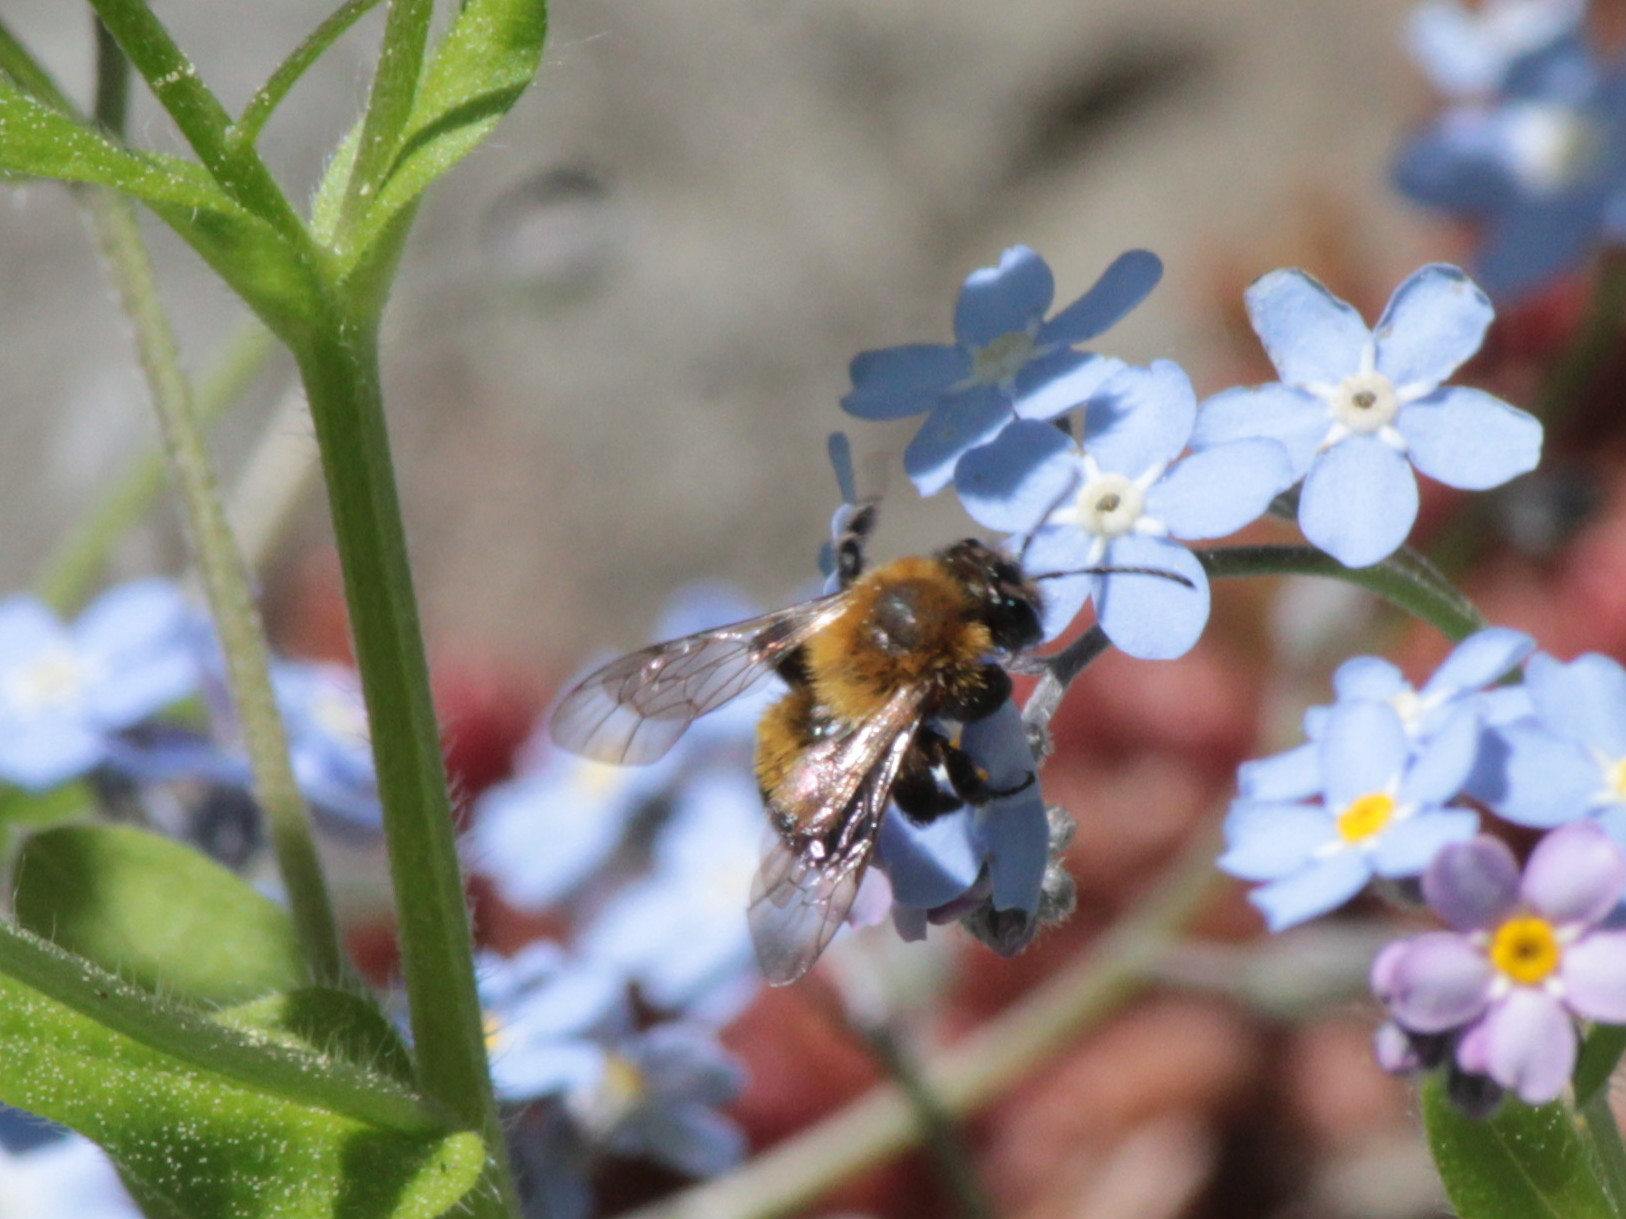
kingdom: Animalia
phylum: Arthropoda
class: Insecta
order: Hymenoptera
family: Andrenidae
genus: Andrena
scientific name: Andrena milwaukeensis
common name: Milwaukee mining bee
